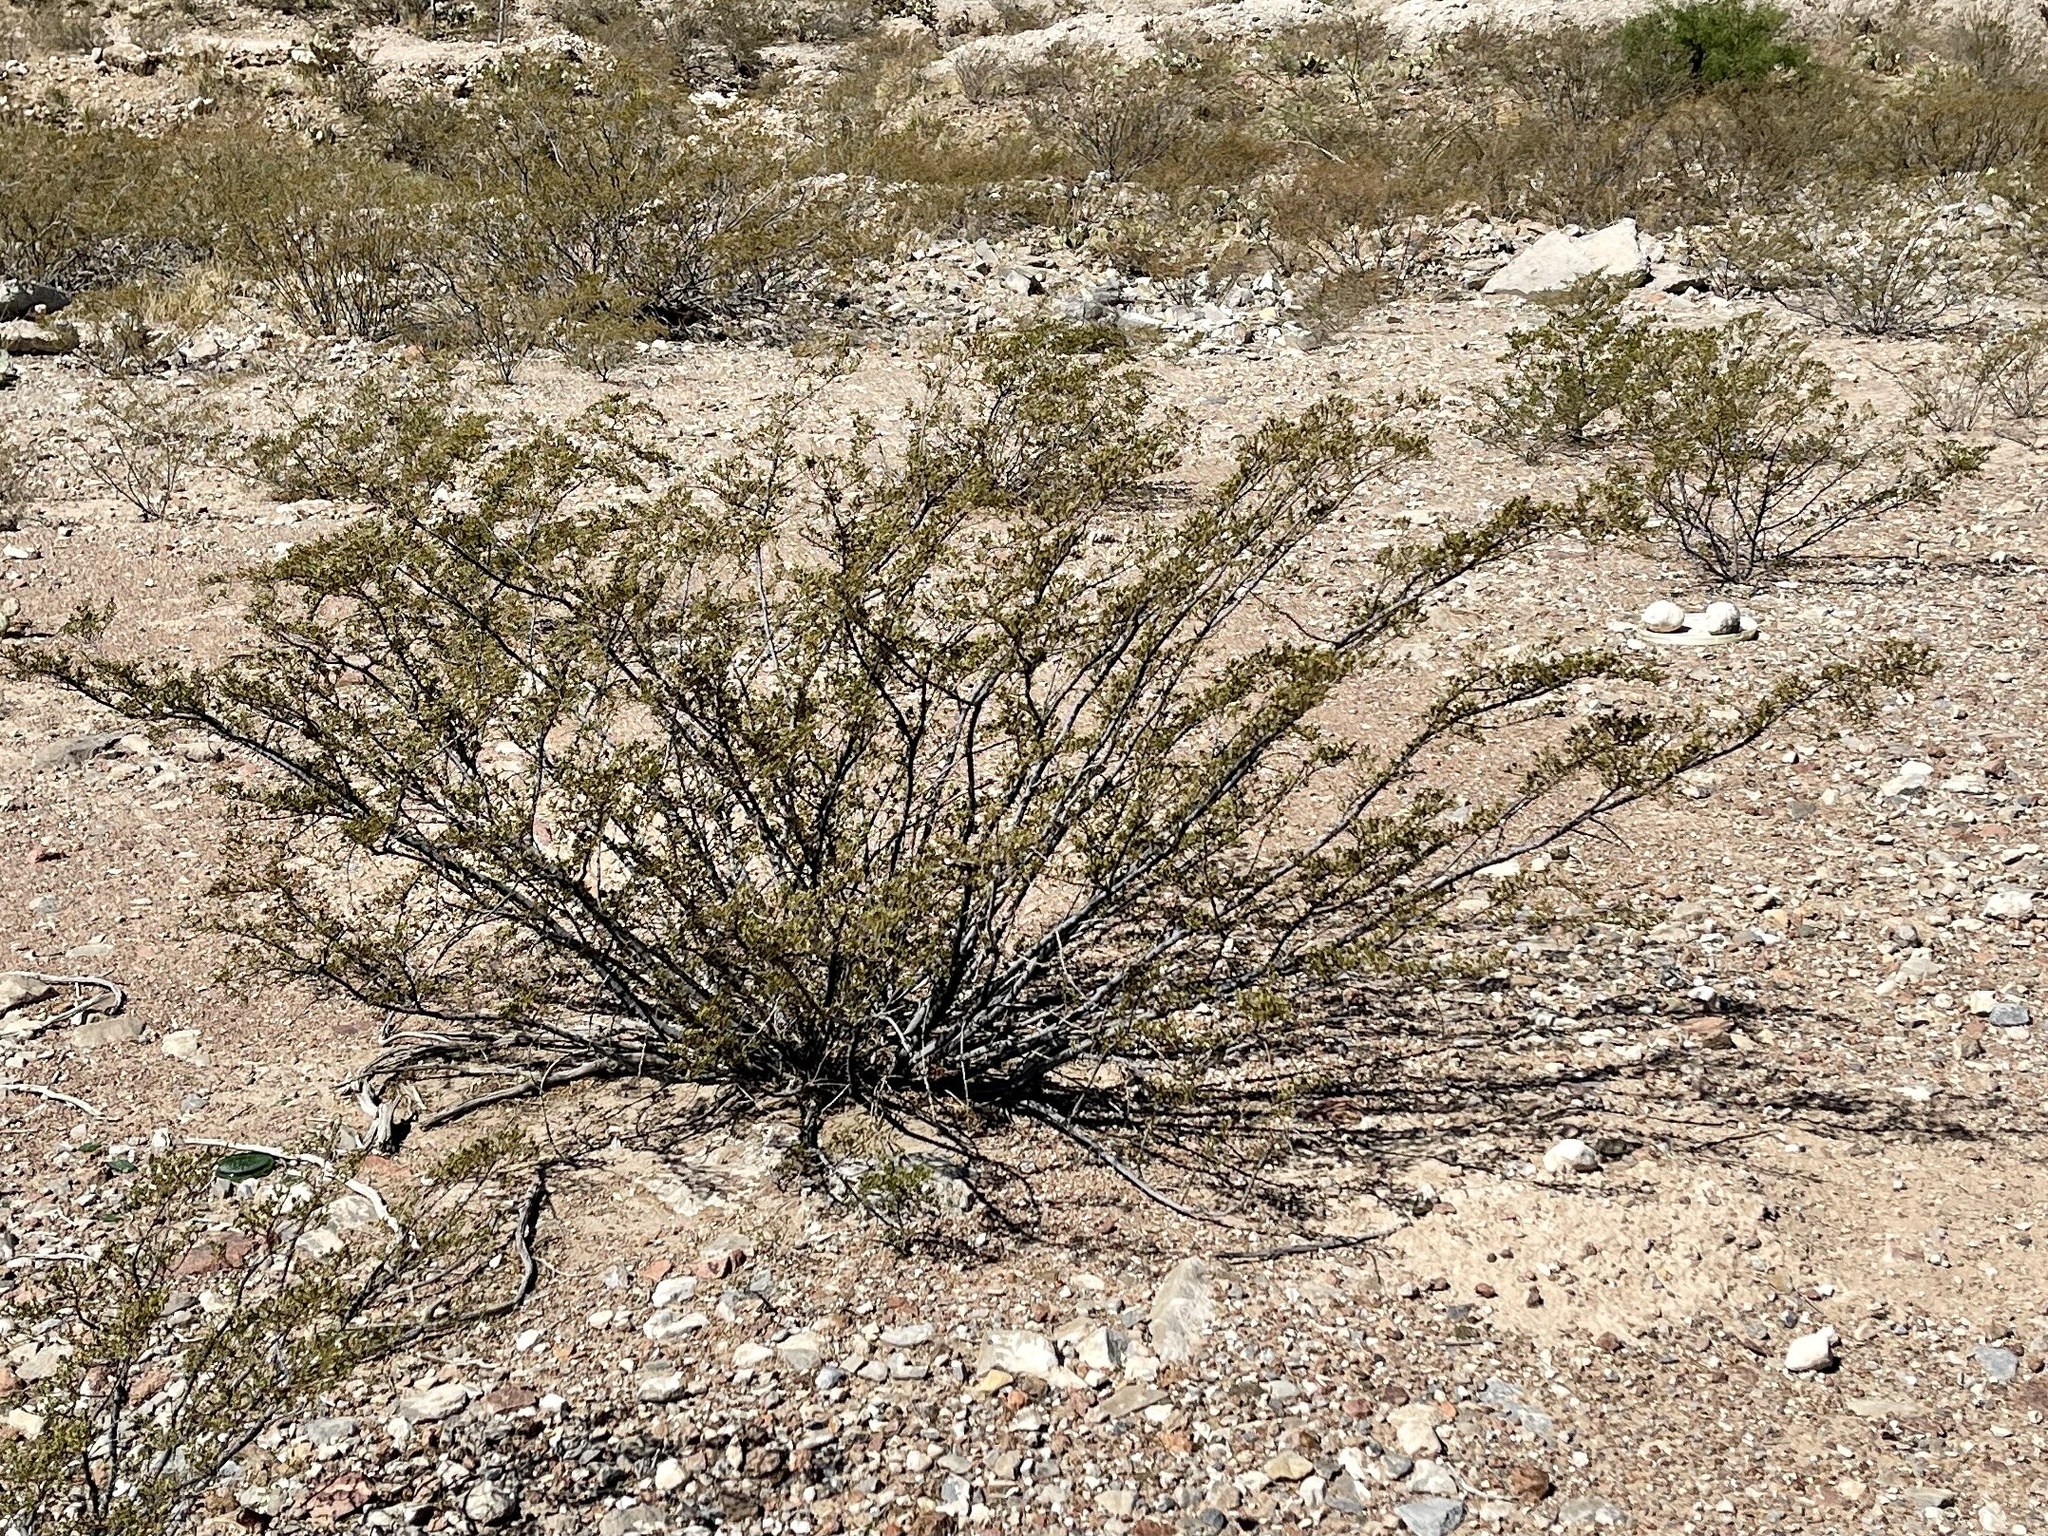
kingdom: Plantae
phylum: Tracheophyta
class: Magnoliopsida
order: Zygophyllales
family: Zygophyllaceae
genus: Larrea
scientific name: Larrea tridentata
